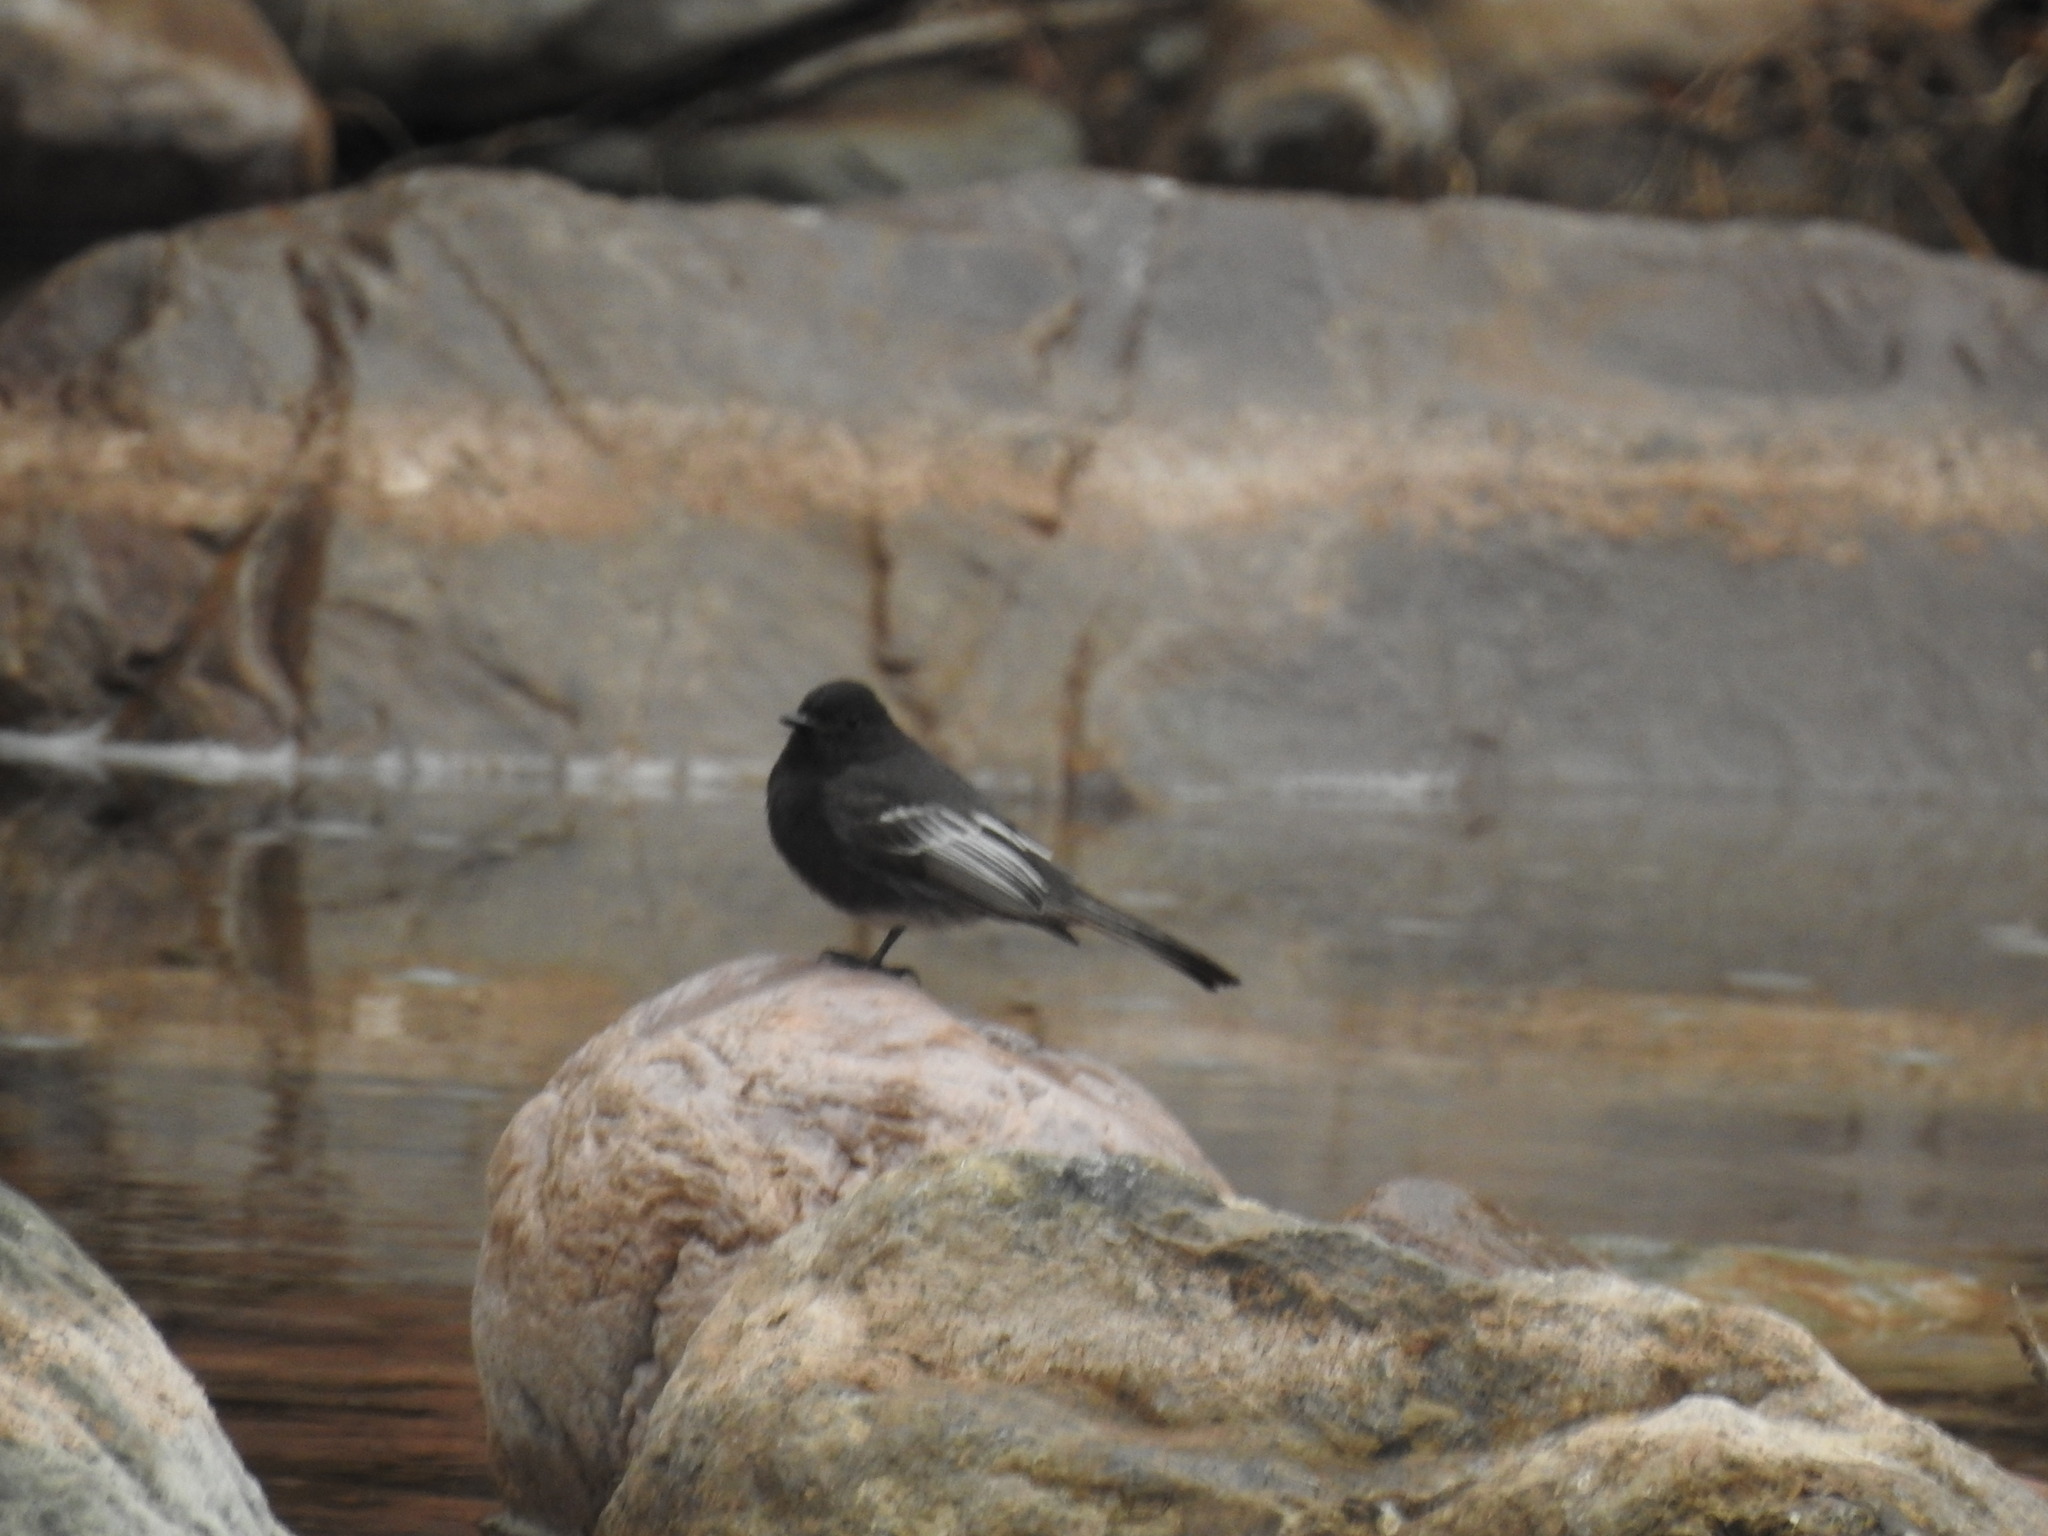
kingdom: Animalia
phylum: Chordata
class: Aves
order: Passeriformes
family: Tyrannidae
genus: Sayornis
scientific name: Sayornis nigricans
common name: Black phoebe
